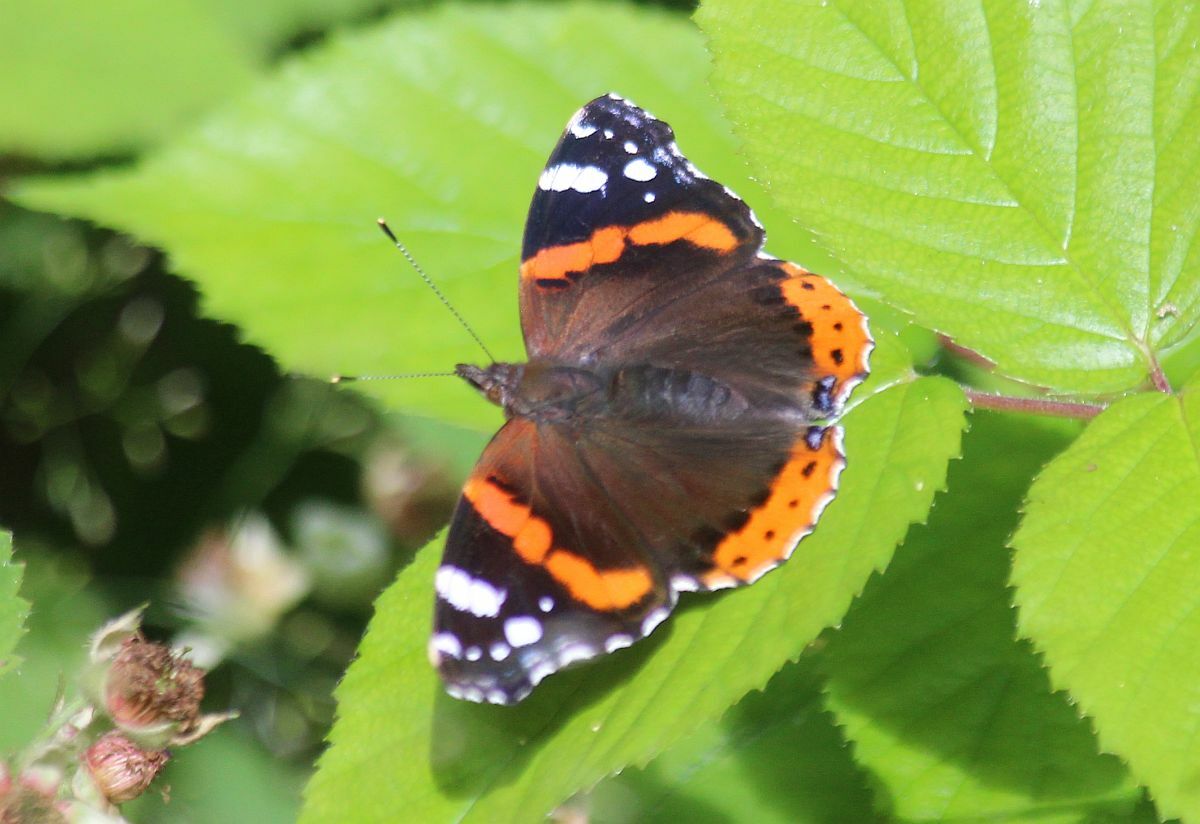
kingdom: Animalia
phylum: Arthropoda
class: Insecta
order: Lepidoptera
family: Nymphalidae
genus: Vanessa
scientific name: Vanessa atalanta
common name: Red admiral
